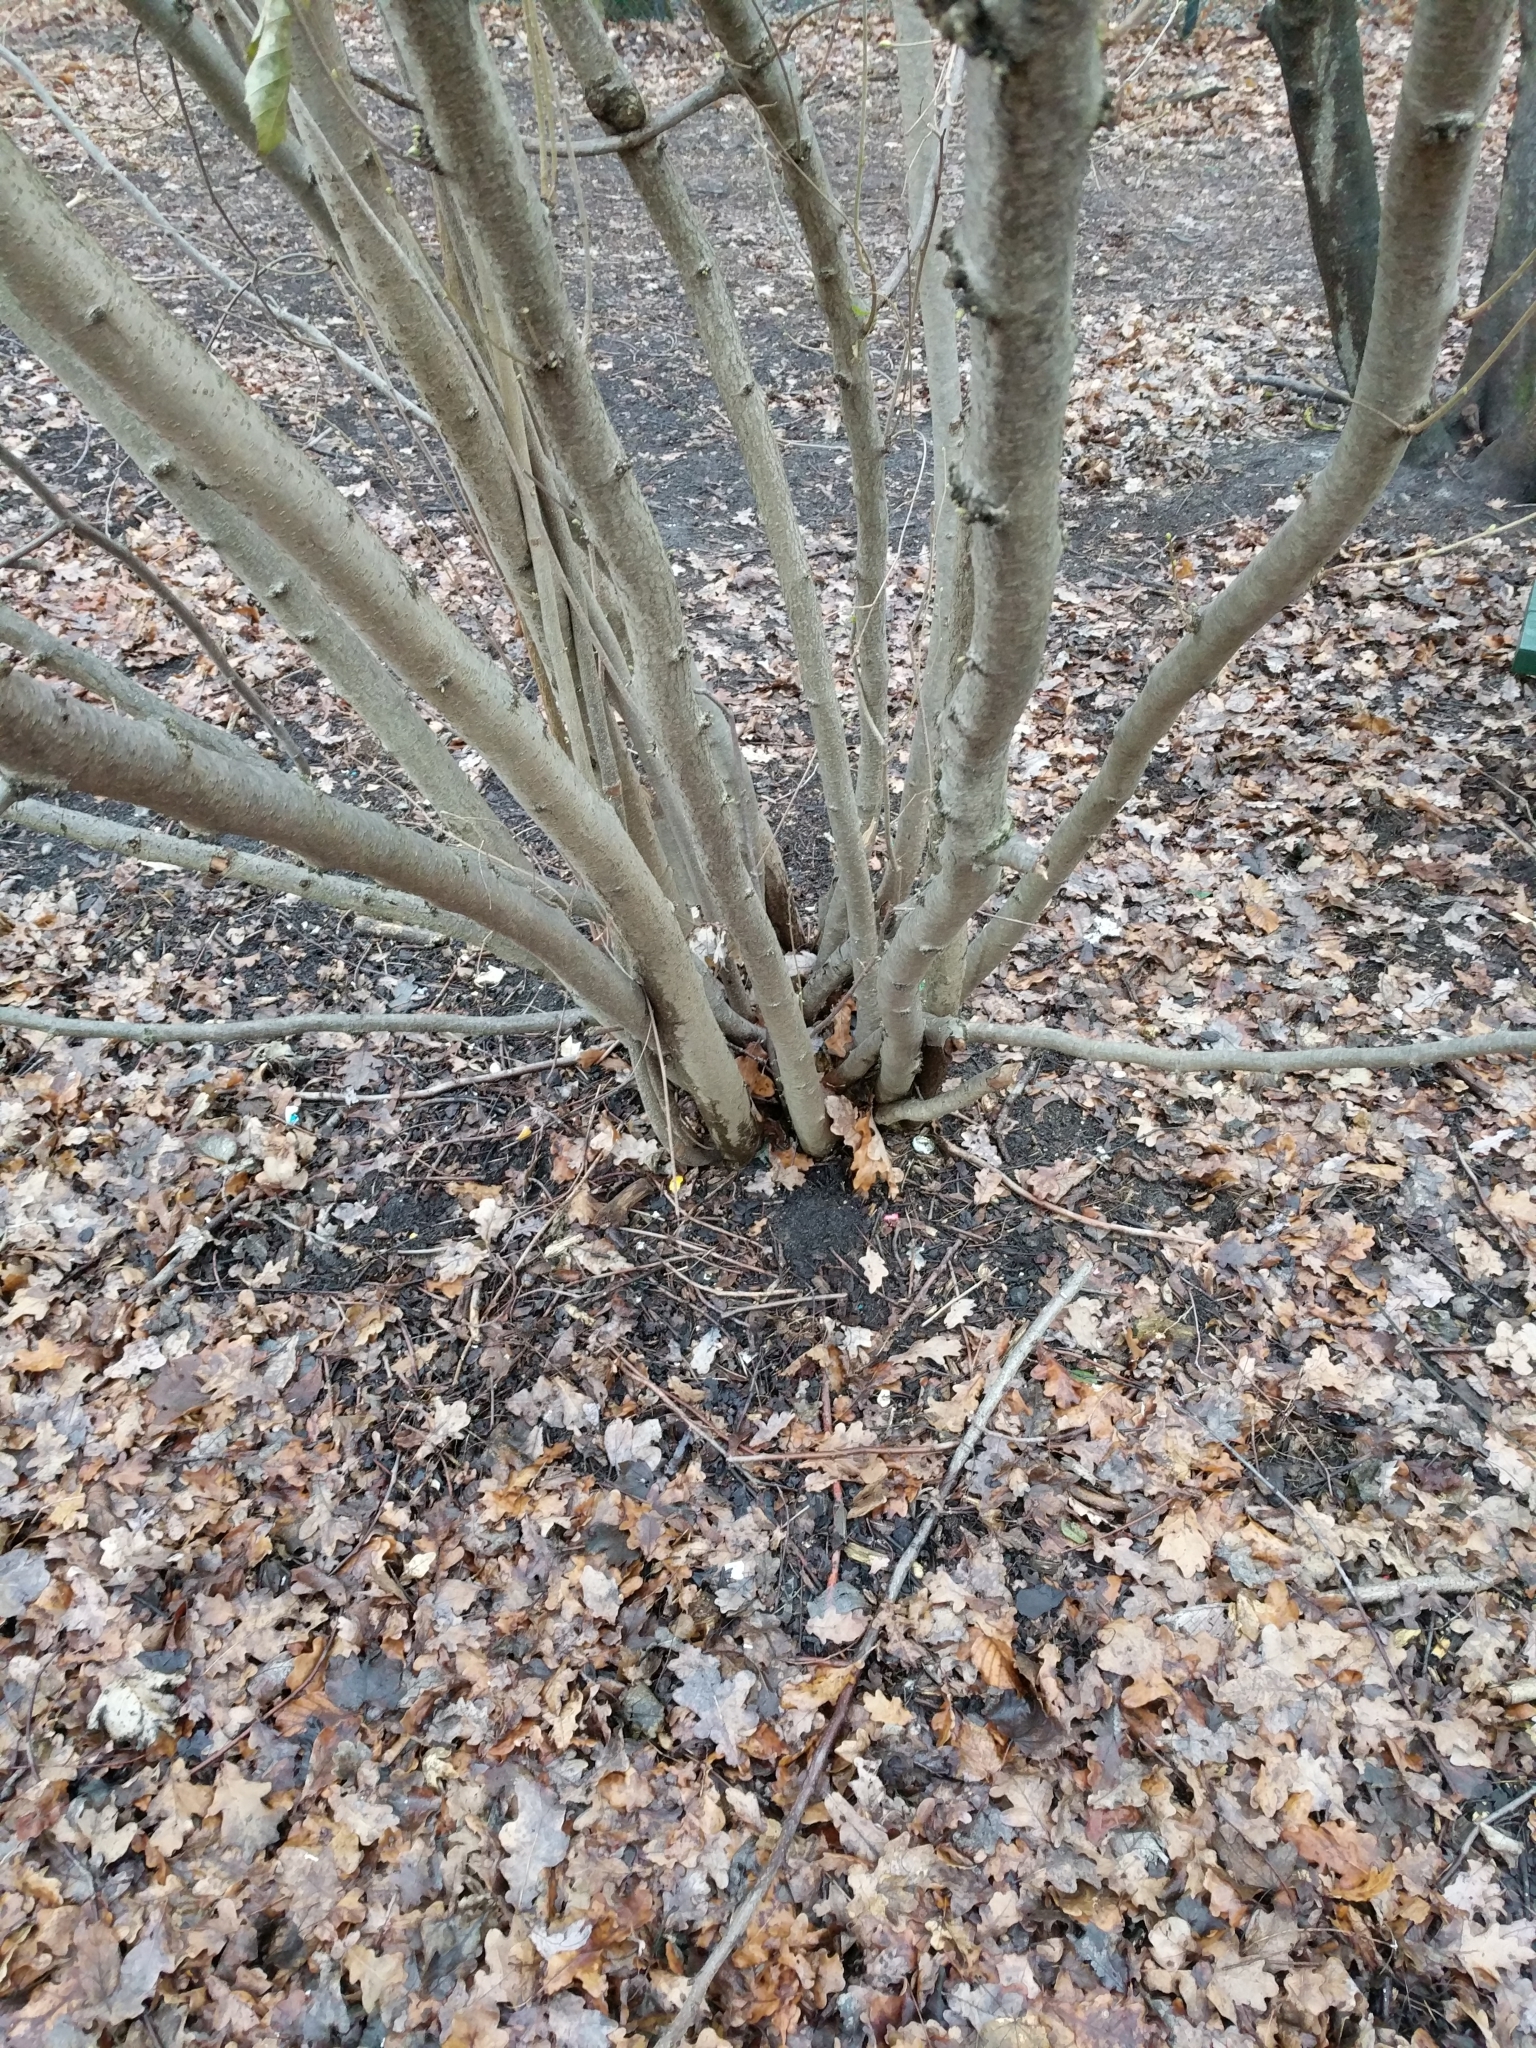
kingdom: Plantae
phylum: Tracheophyta
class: Magnoliopsida
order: Fagales
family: Betulaceae
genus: Corylus
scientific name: Corylus avellana
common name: European hazel
